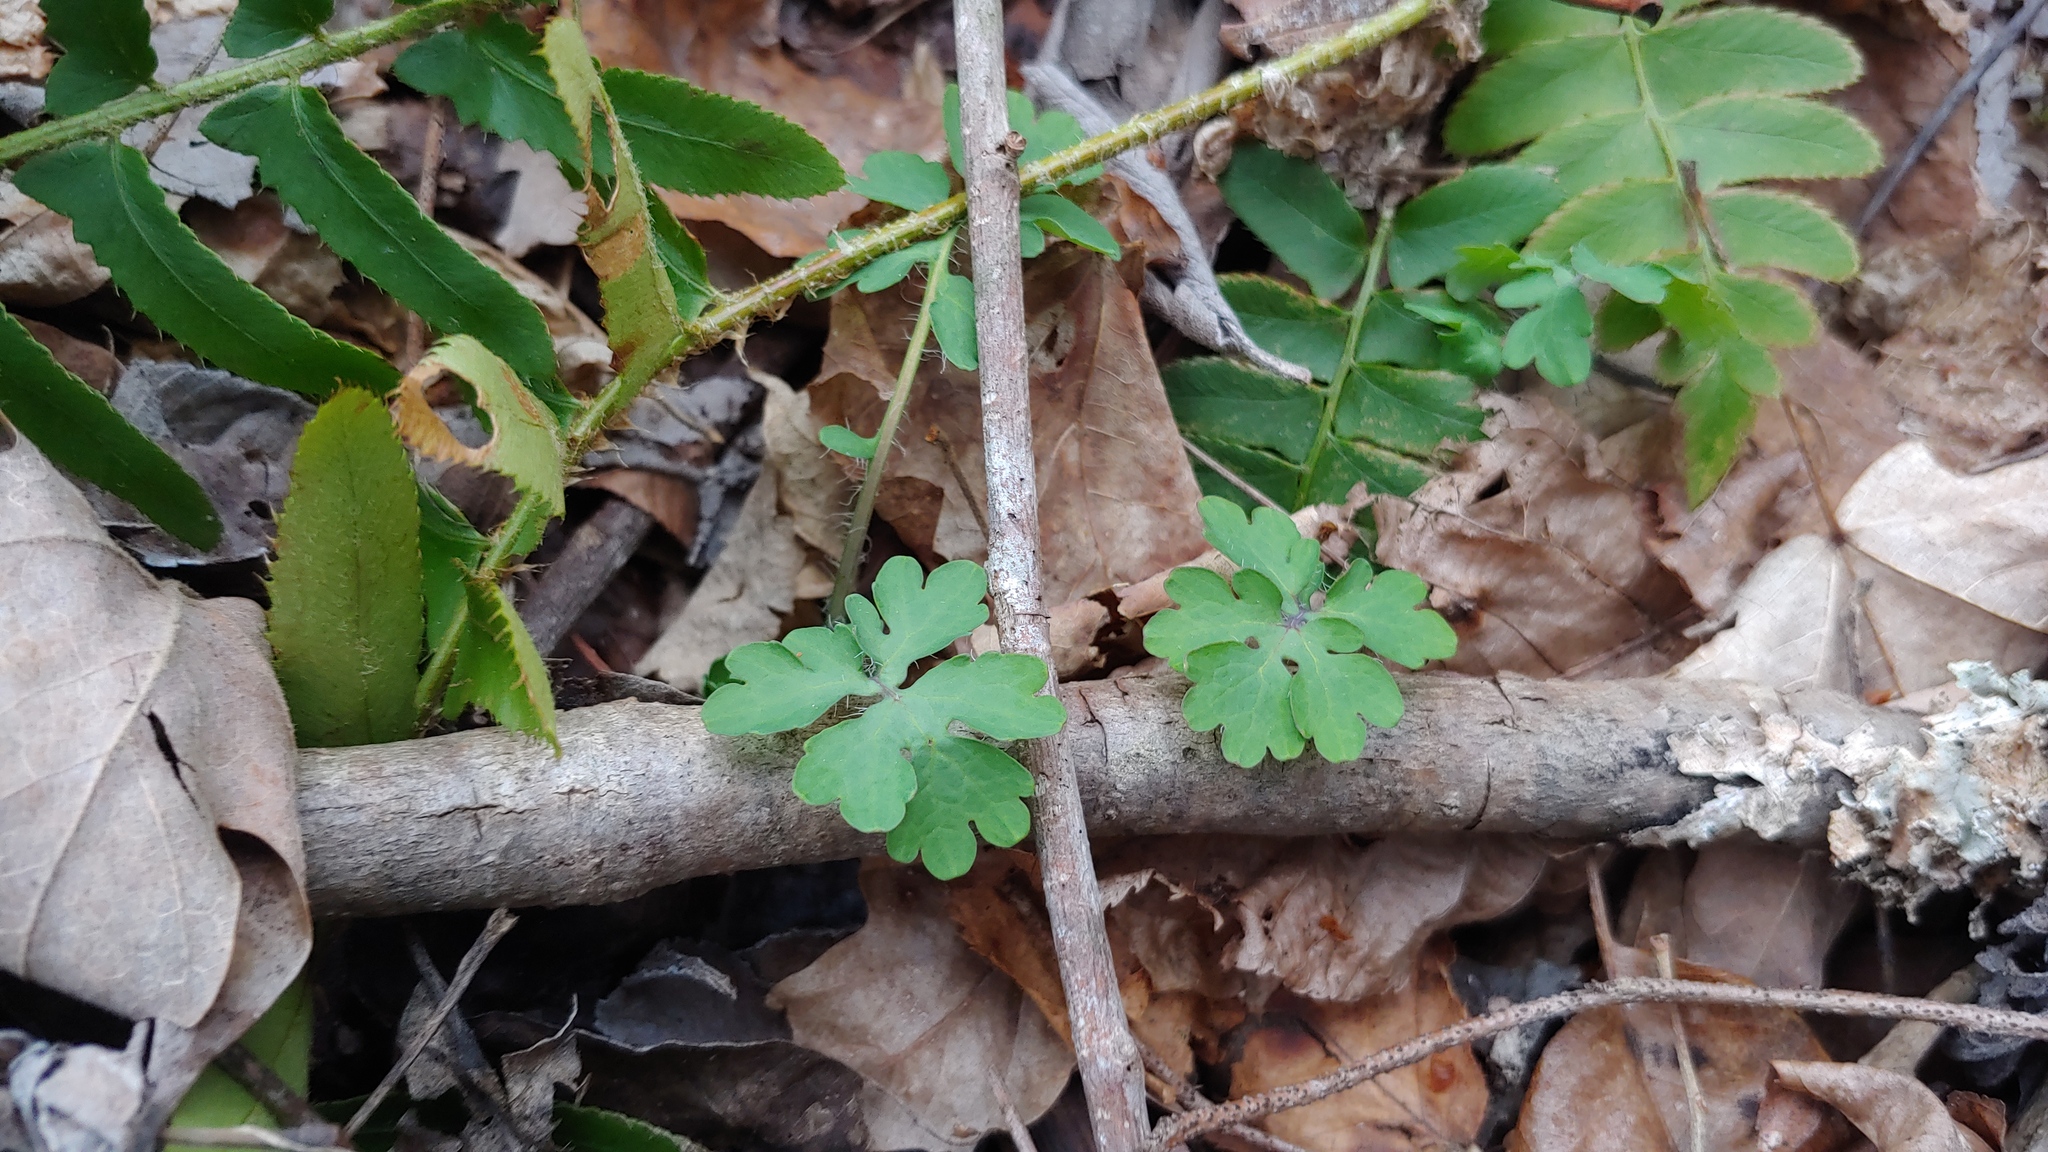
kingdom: Plantae
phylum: Tracheophyta
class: Magnoliopsida
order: Ranunculales
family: Papaveraceae
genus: Stylophorum
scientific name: Stylophorum diphyllum
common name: Celandine poppy
